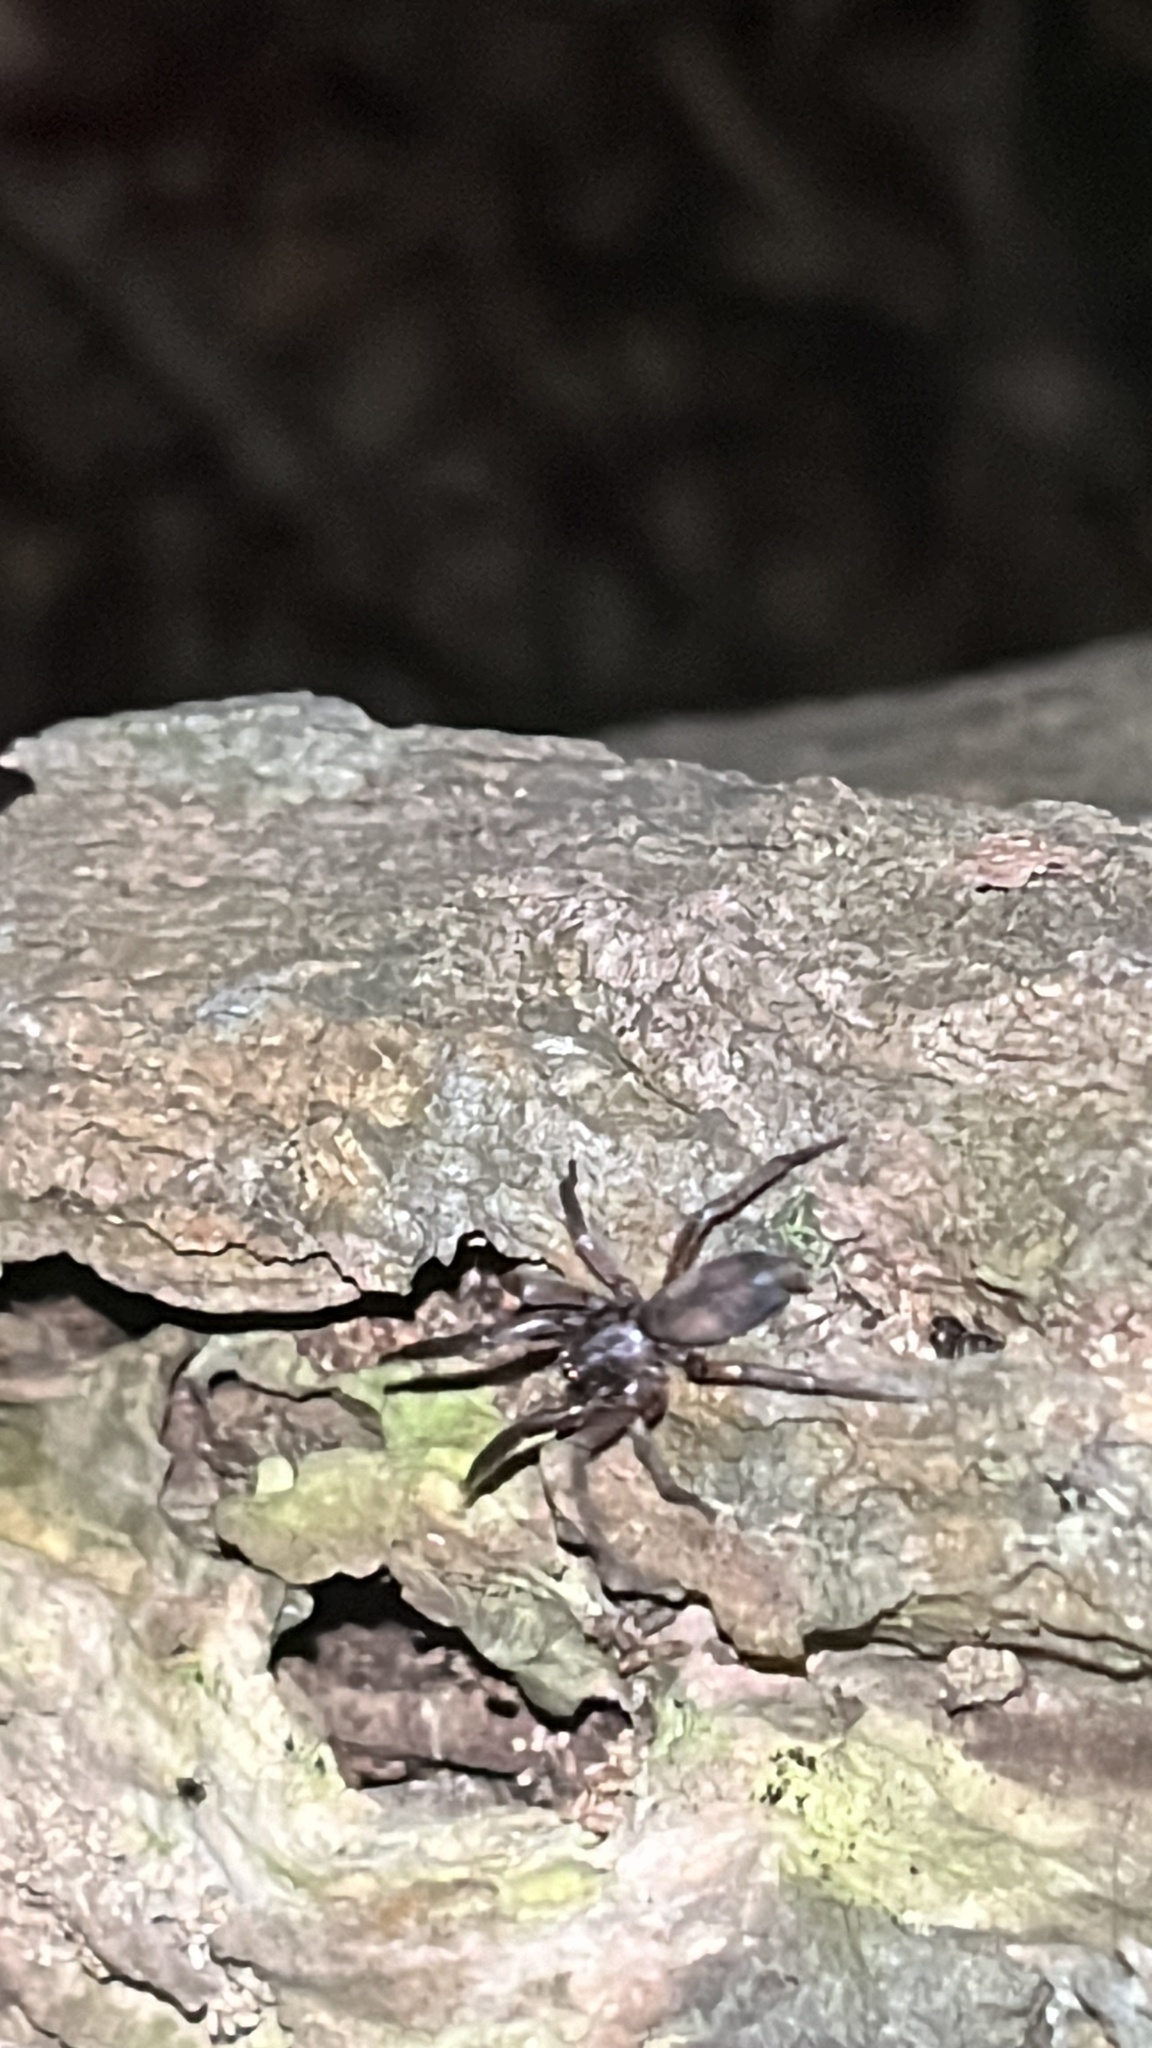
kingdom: Animalia
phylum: Arthropoda
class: Arachnida
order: Araneae
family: Gnaphosidae
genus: Intruda
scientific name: Intruda signata
